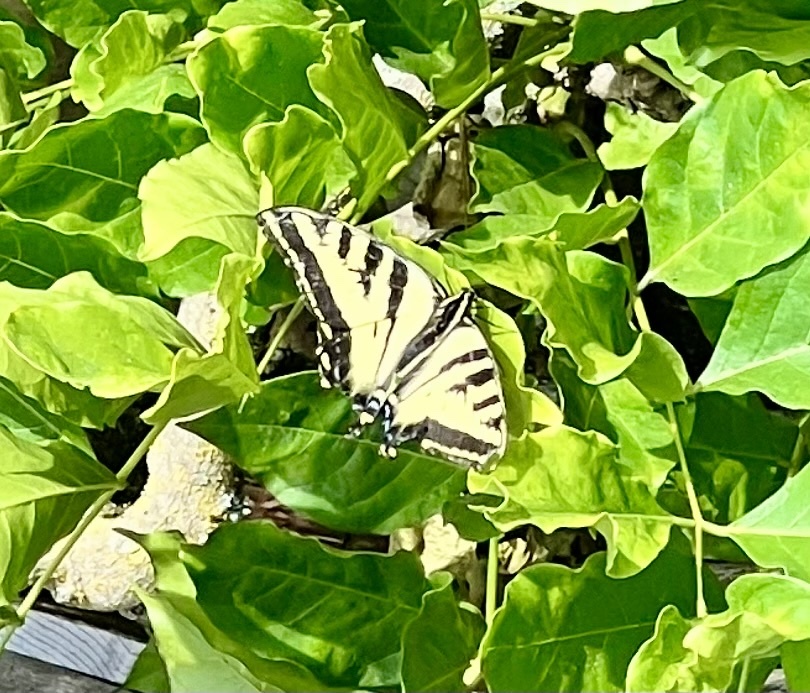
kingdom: Animalia
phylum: Arthropoda
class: Insecta
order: Lepidoptera
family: Papilionidae
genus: Papilio
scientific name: Papilio rutulus
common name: Western tiger swallowtail
